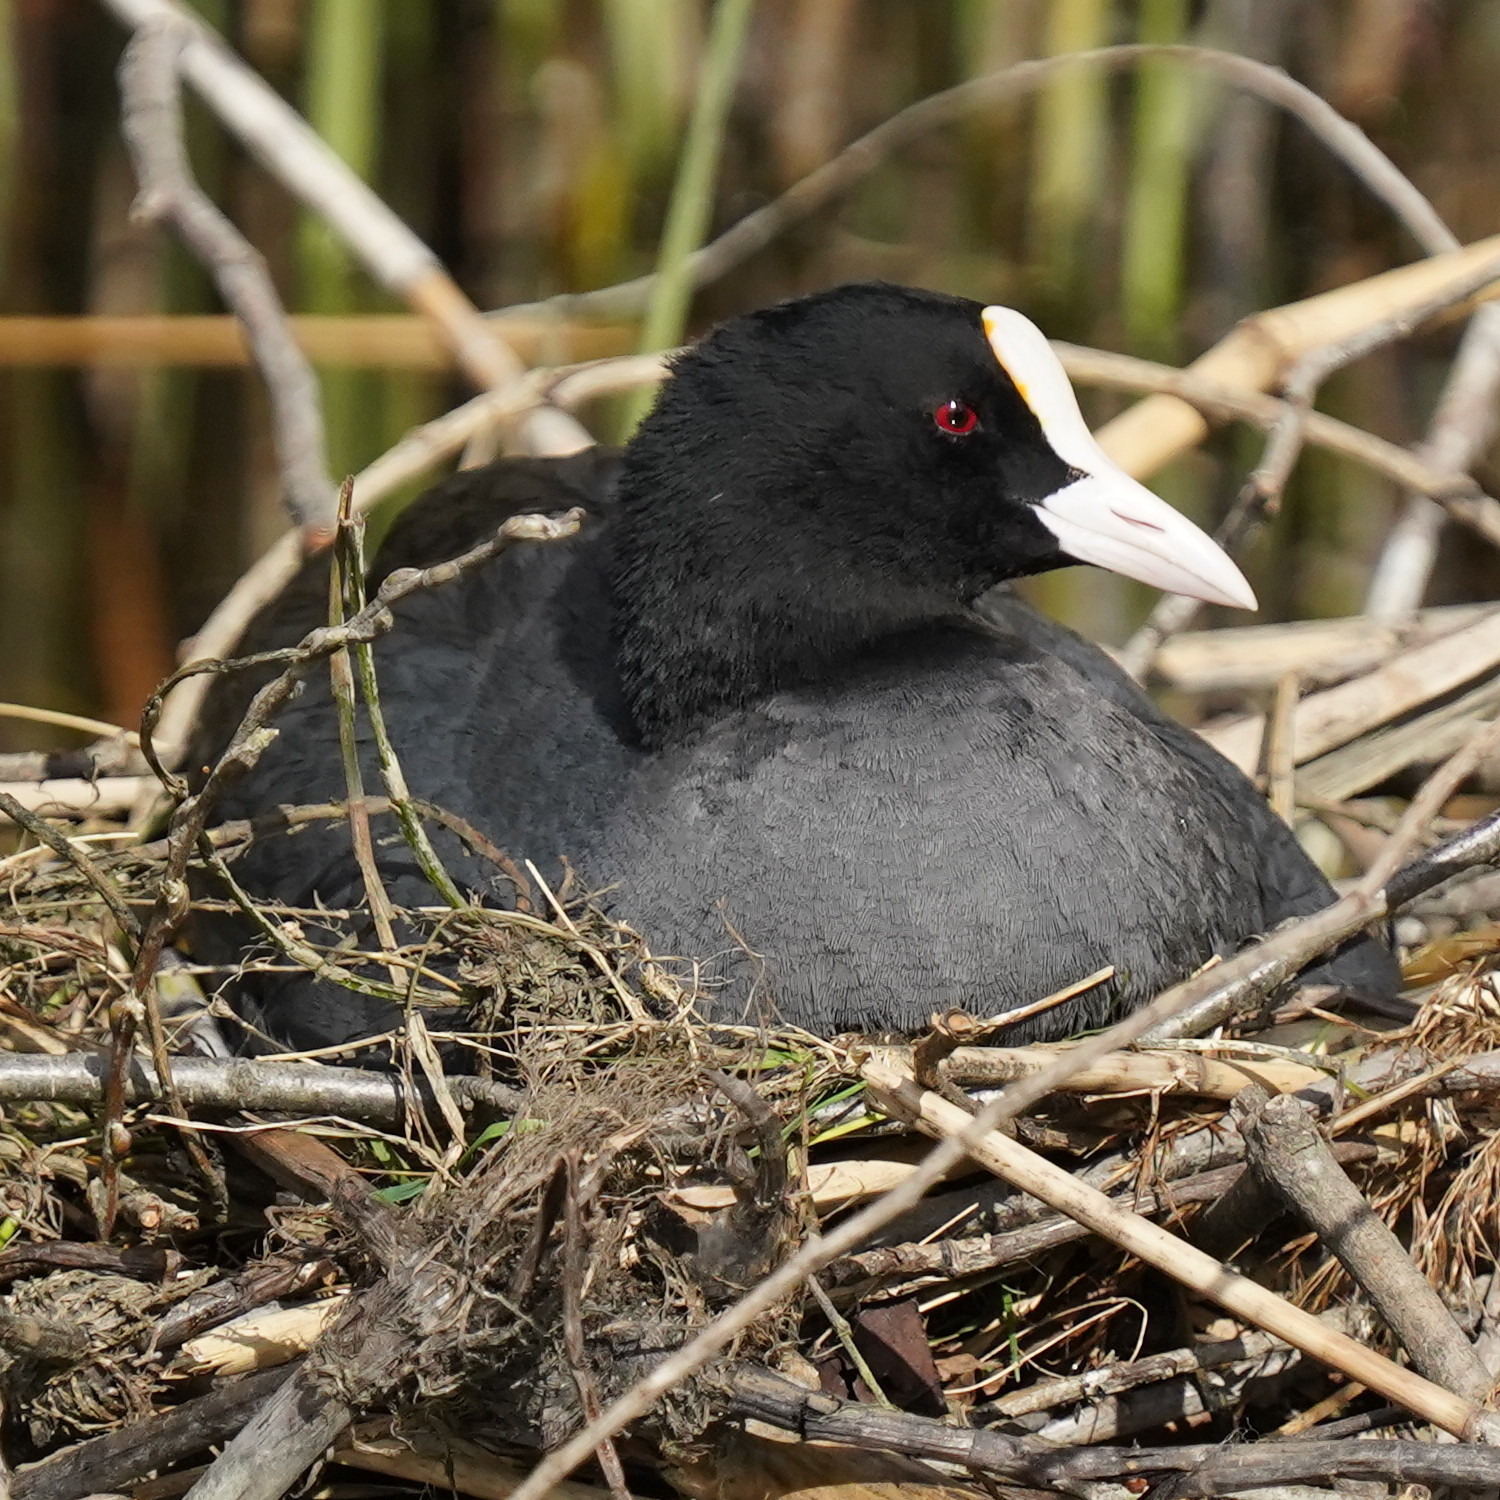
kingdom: Animalia
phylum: Chordata
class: Aves
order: Gruiformes
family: Rallidae
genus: Fulica
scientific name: Fulica atra
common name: Eurasian coot
